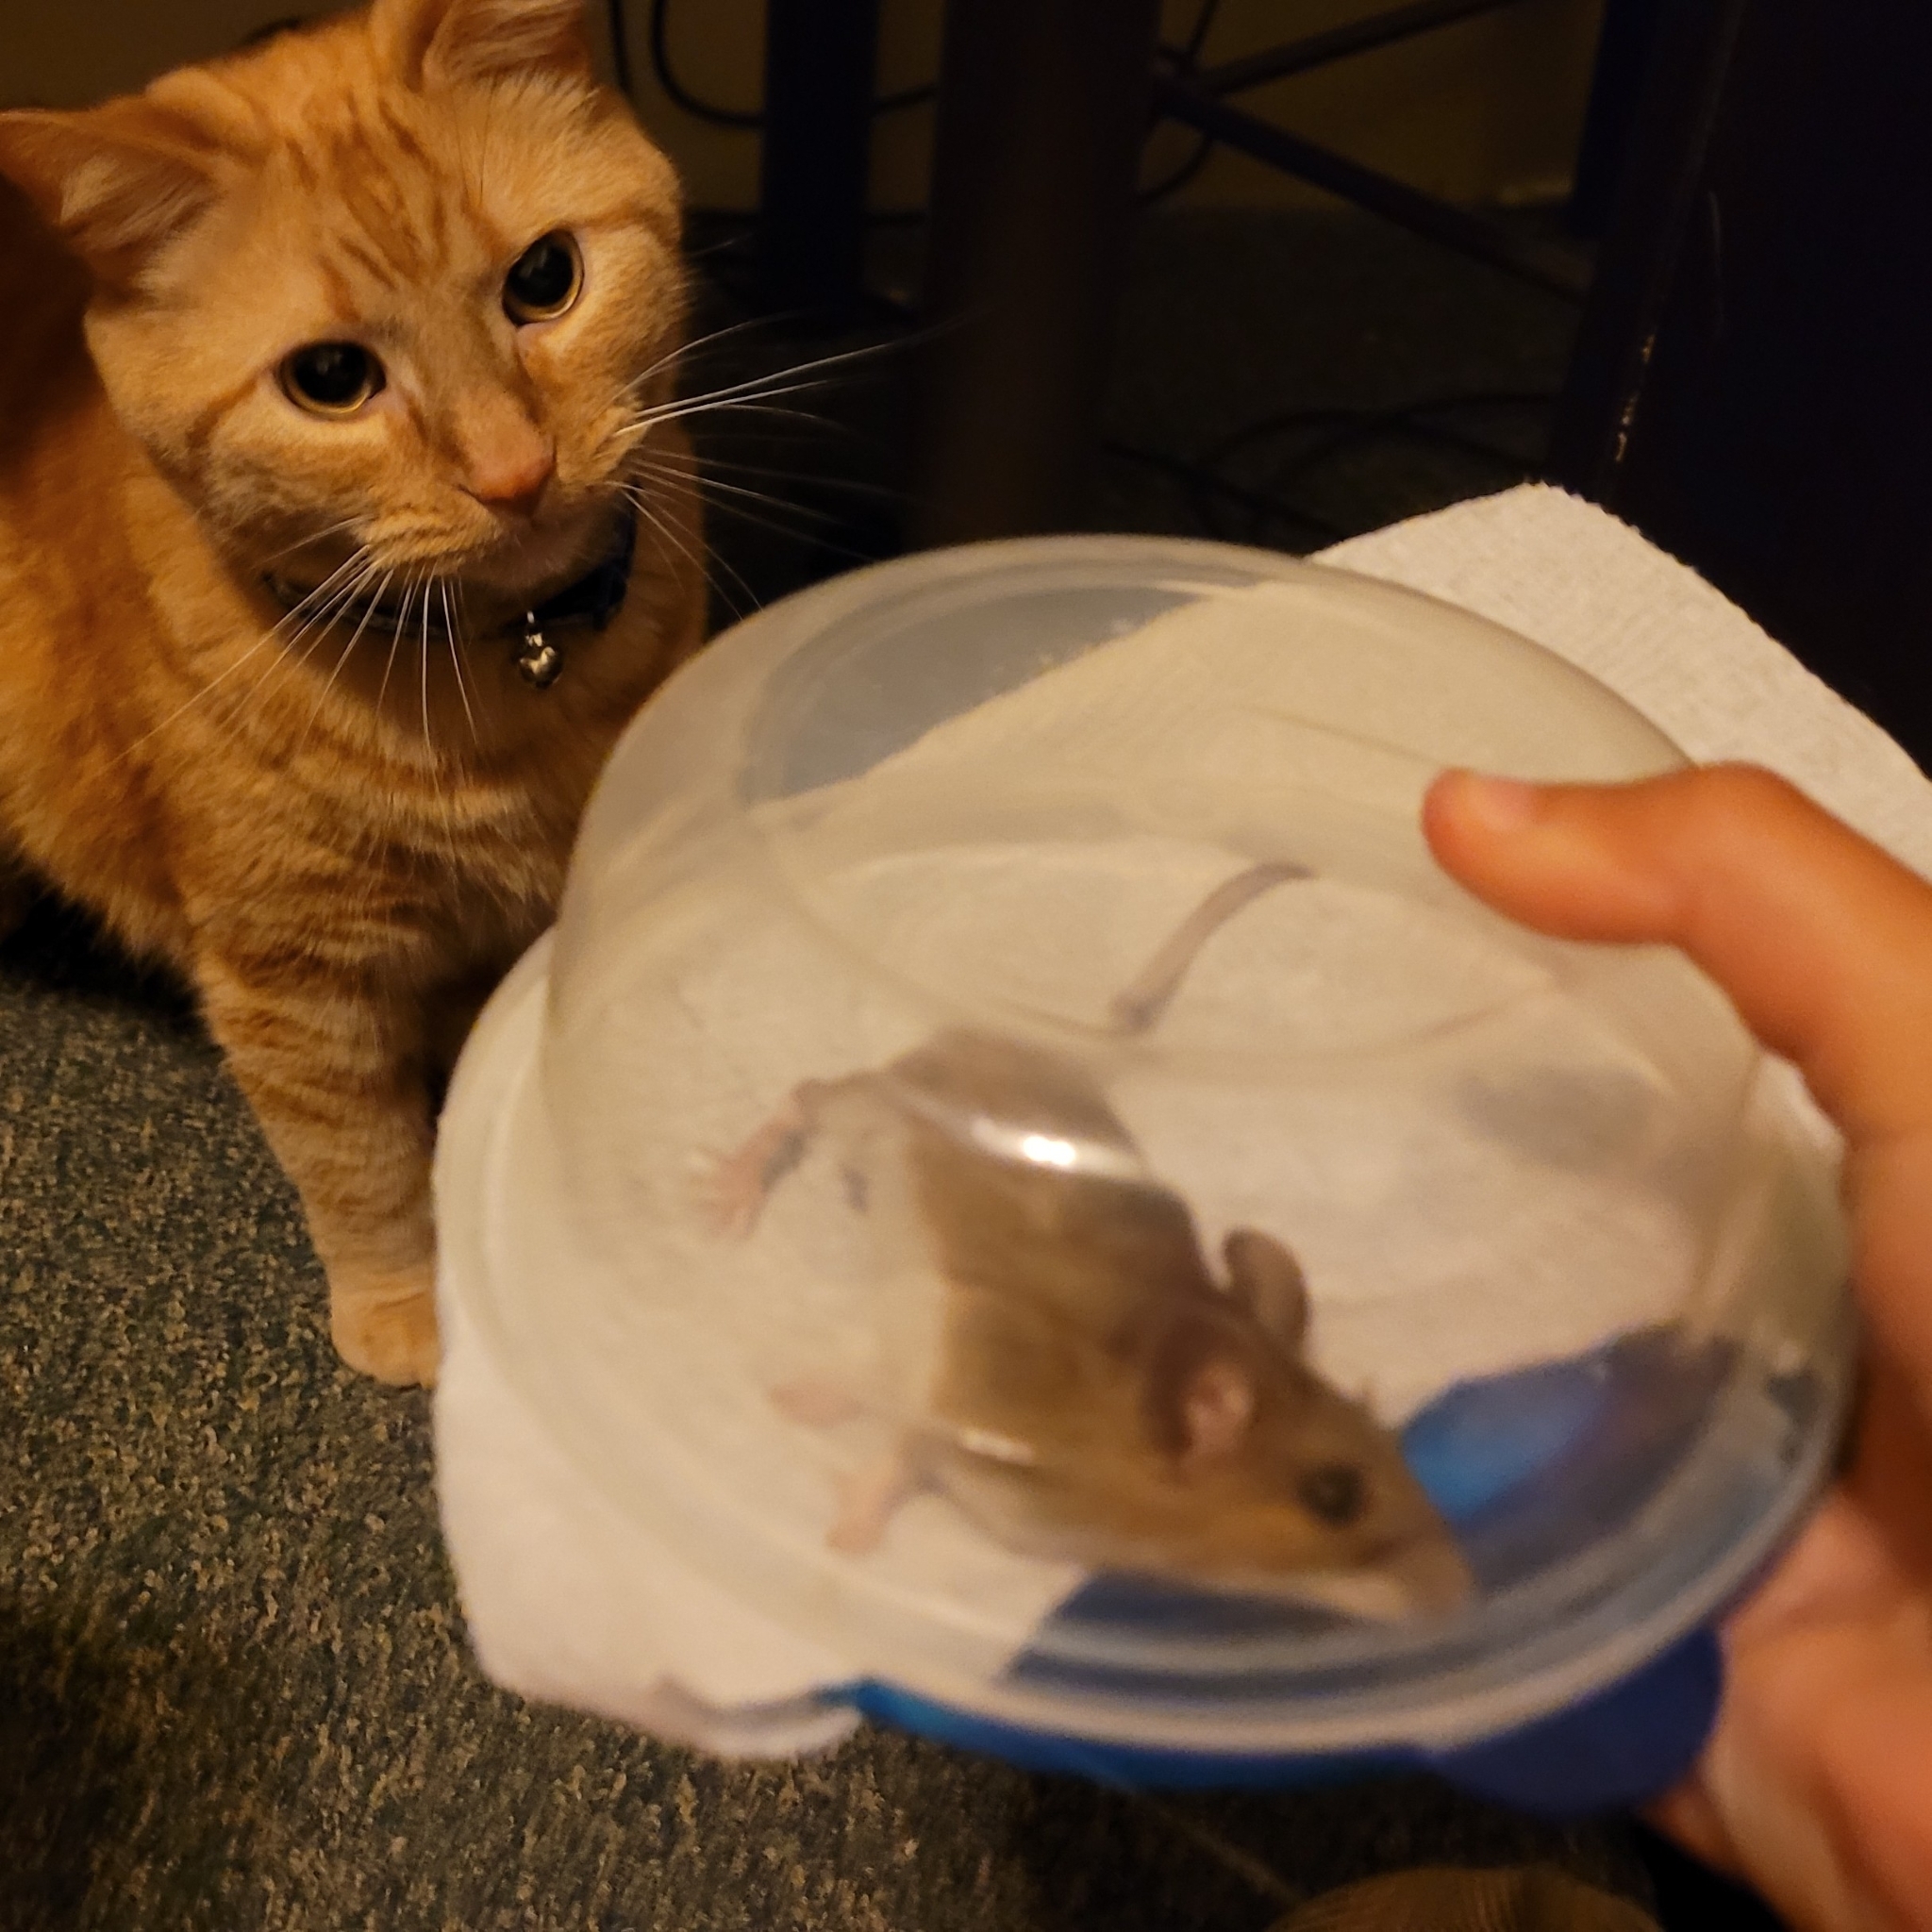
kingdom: Animalia
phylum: Chordata
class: Mammalia
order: Rodentia
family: Cricetidae
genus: Peromyscus
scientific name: Peromyscus leucopus
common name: White-footed deermouse
